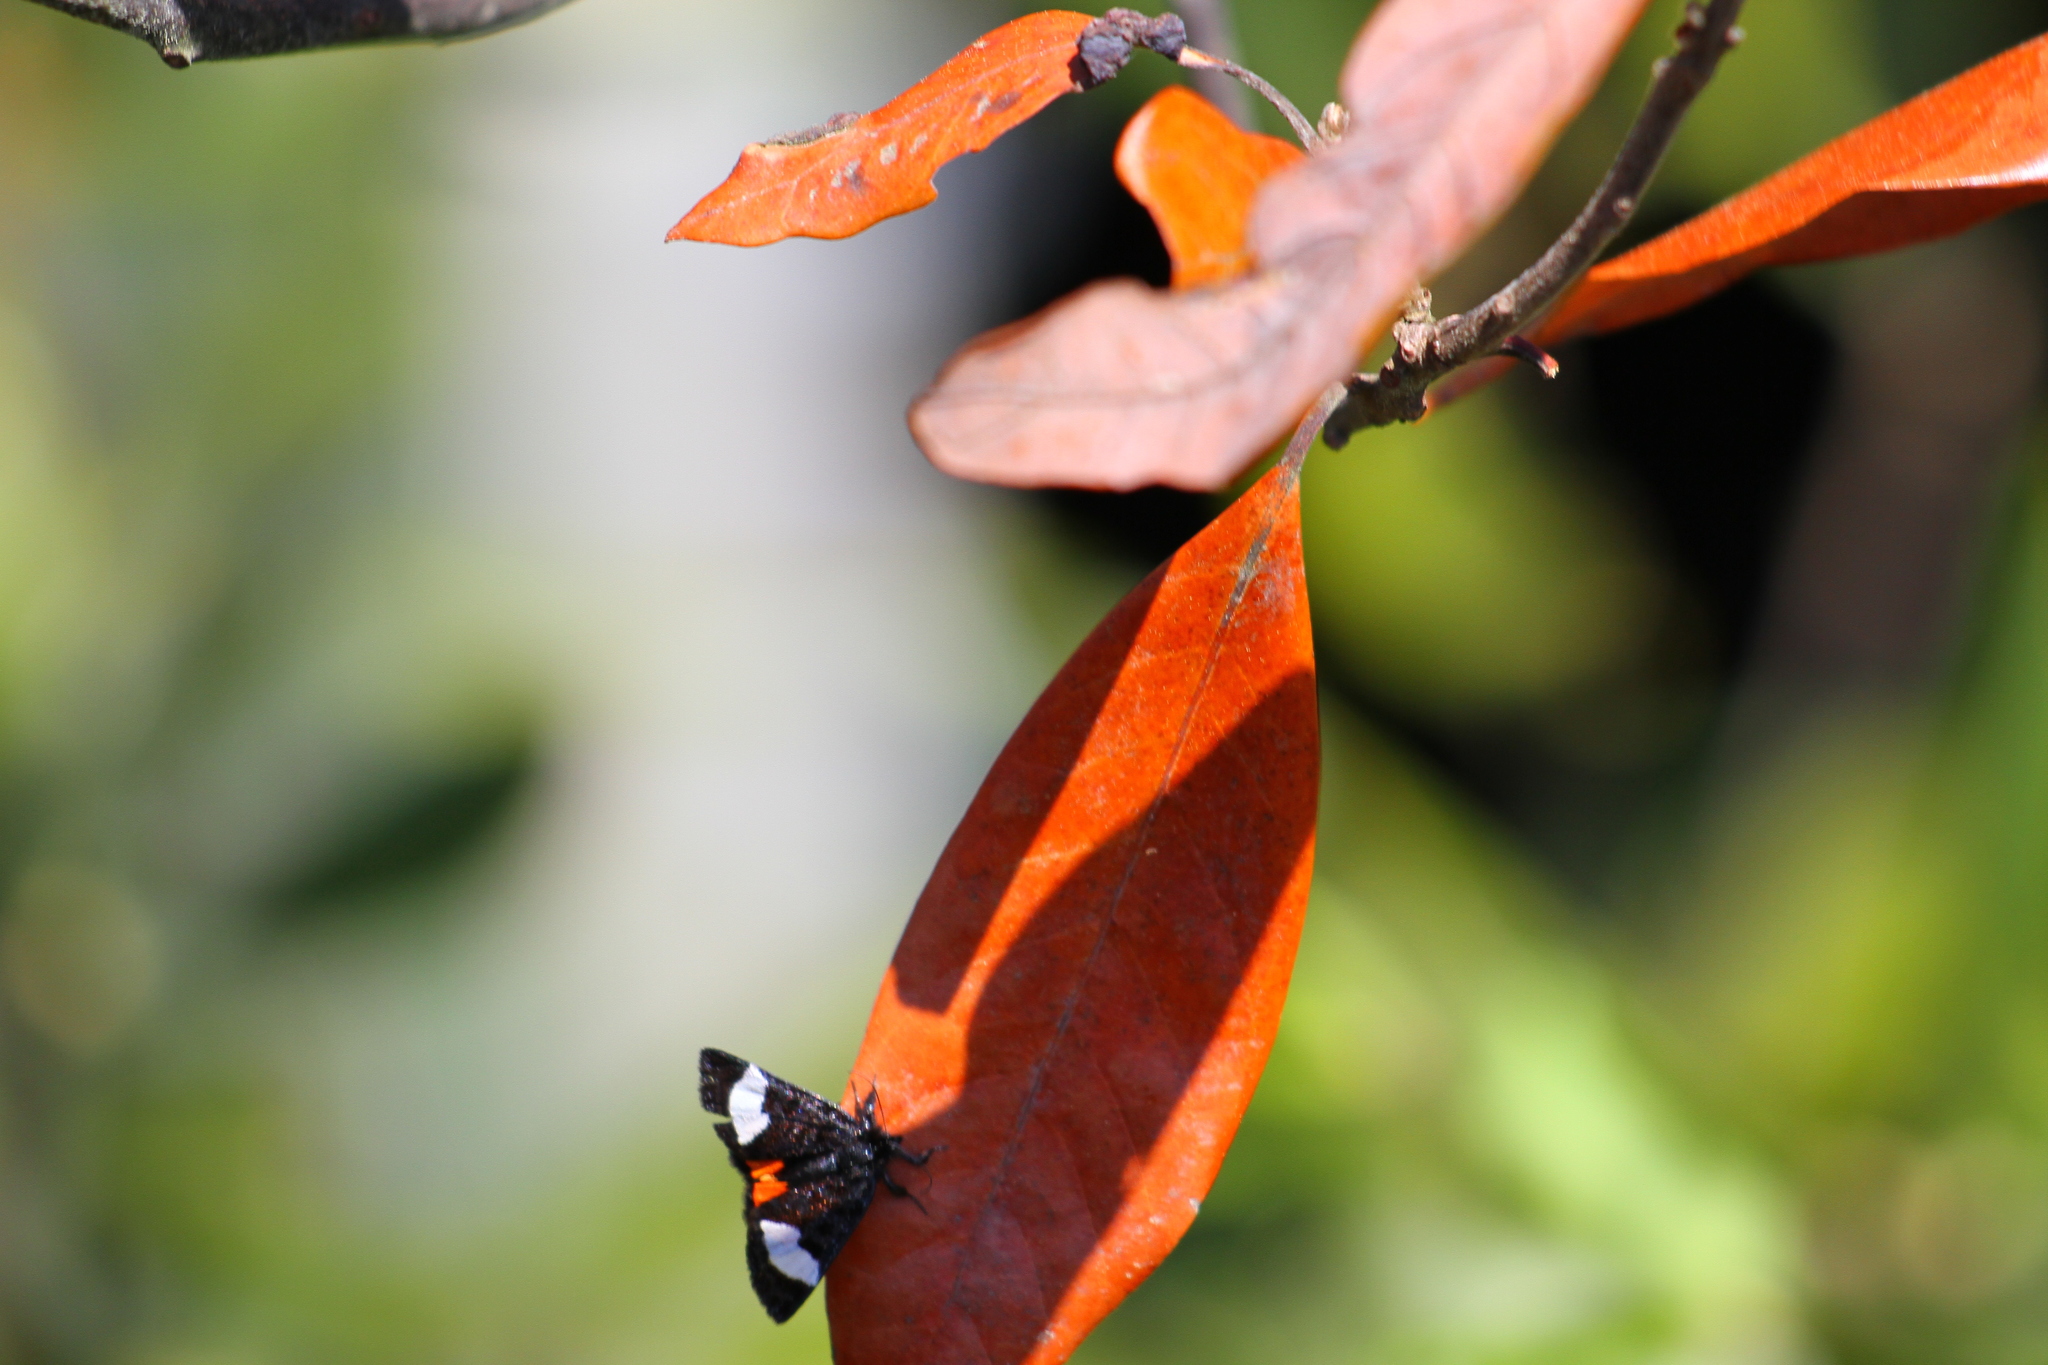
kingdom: Animalia
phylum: Arthropoda
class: Insecta
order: Lepidoptera
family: Noctuidae
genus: Psychomorpha
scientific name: Psychomorpha epimenis
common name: Grapevine epimenis moth
